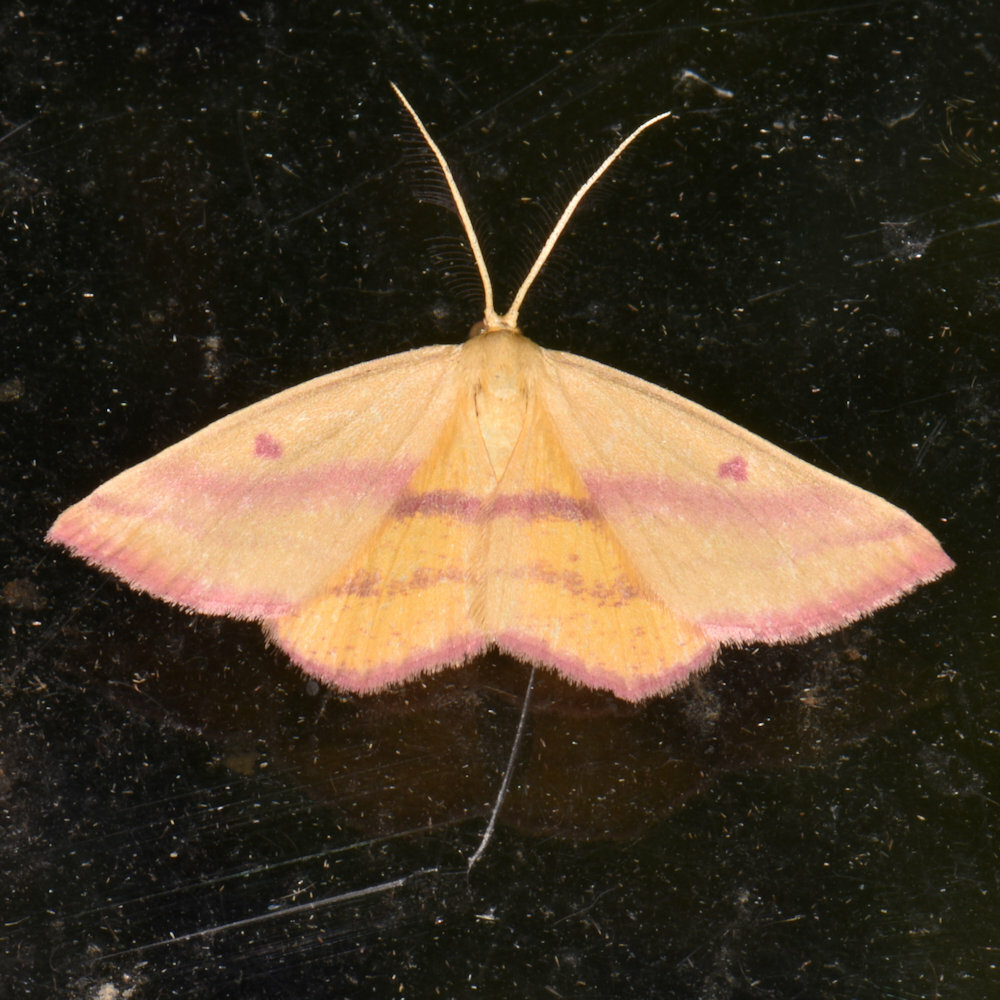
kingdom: Animalia
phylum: Arthropoda
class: Insecta
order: Lepidoptera
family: Geometridae
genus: Haematopis
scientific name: Haematopis grataria
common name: Chickweed geometer
